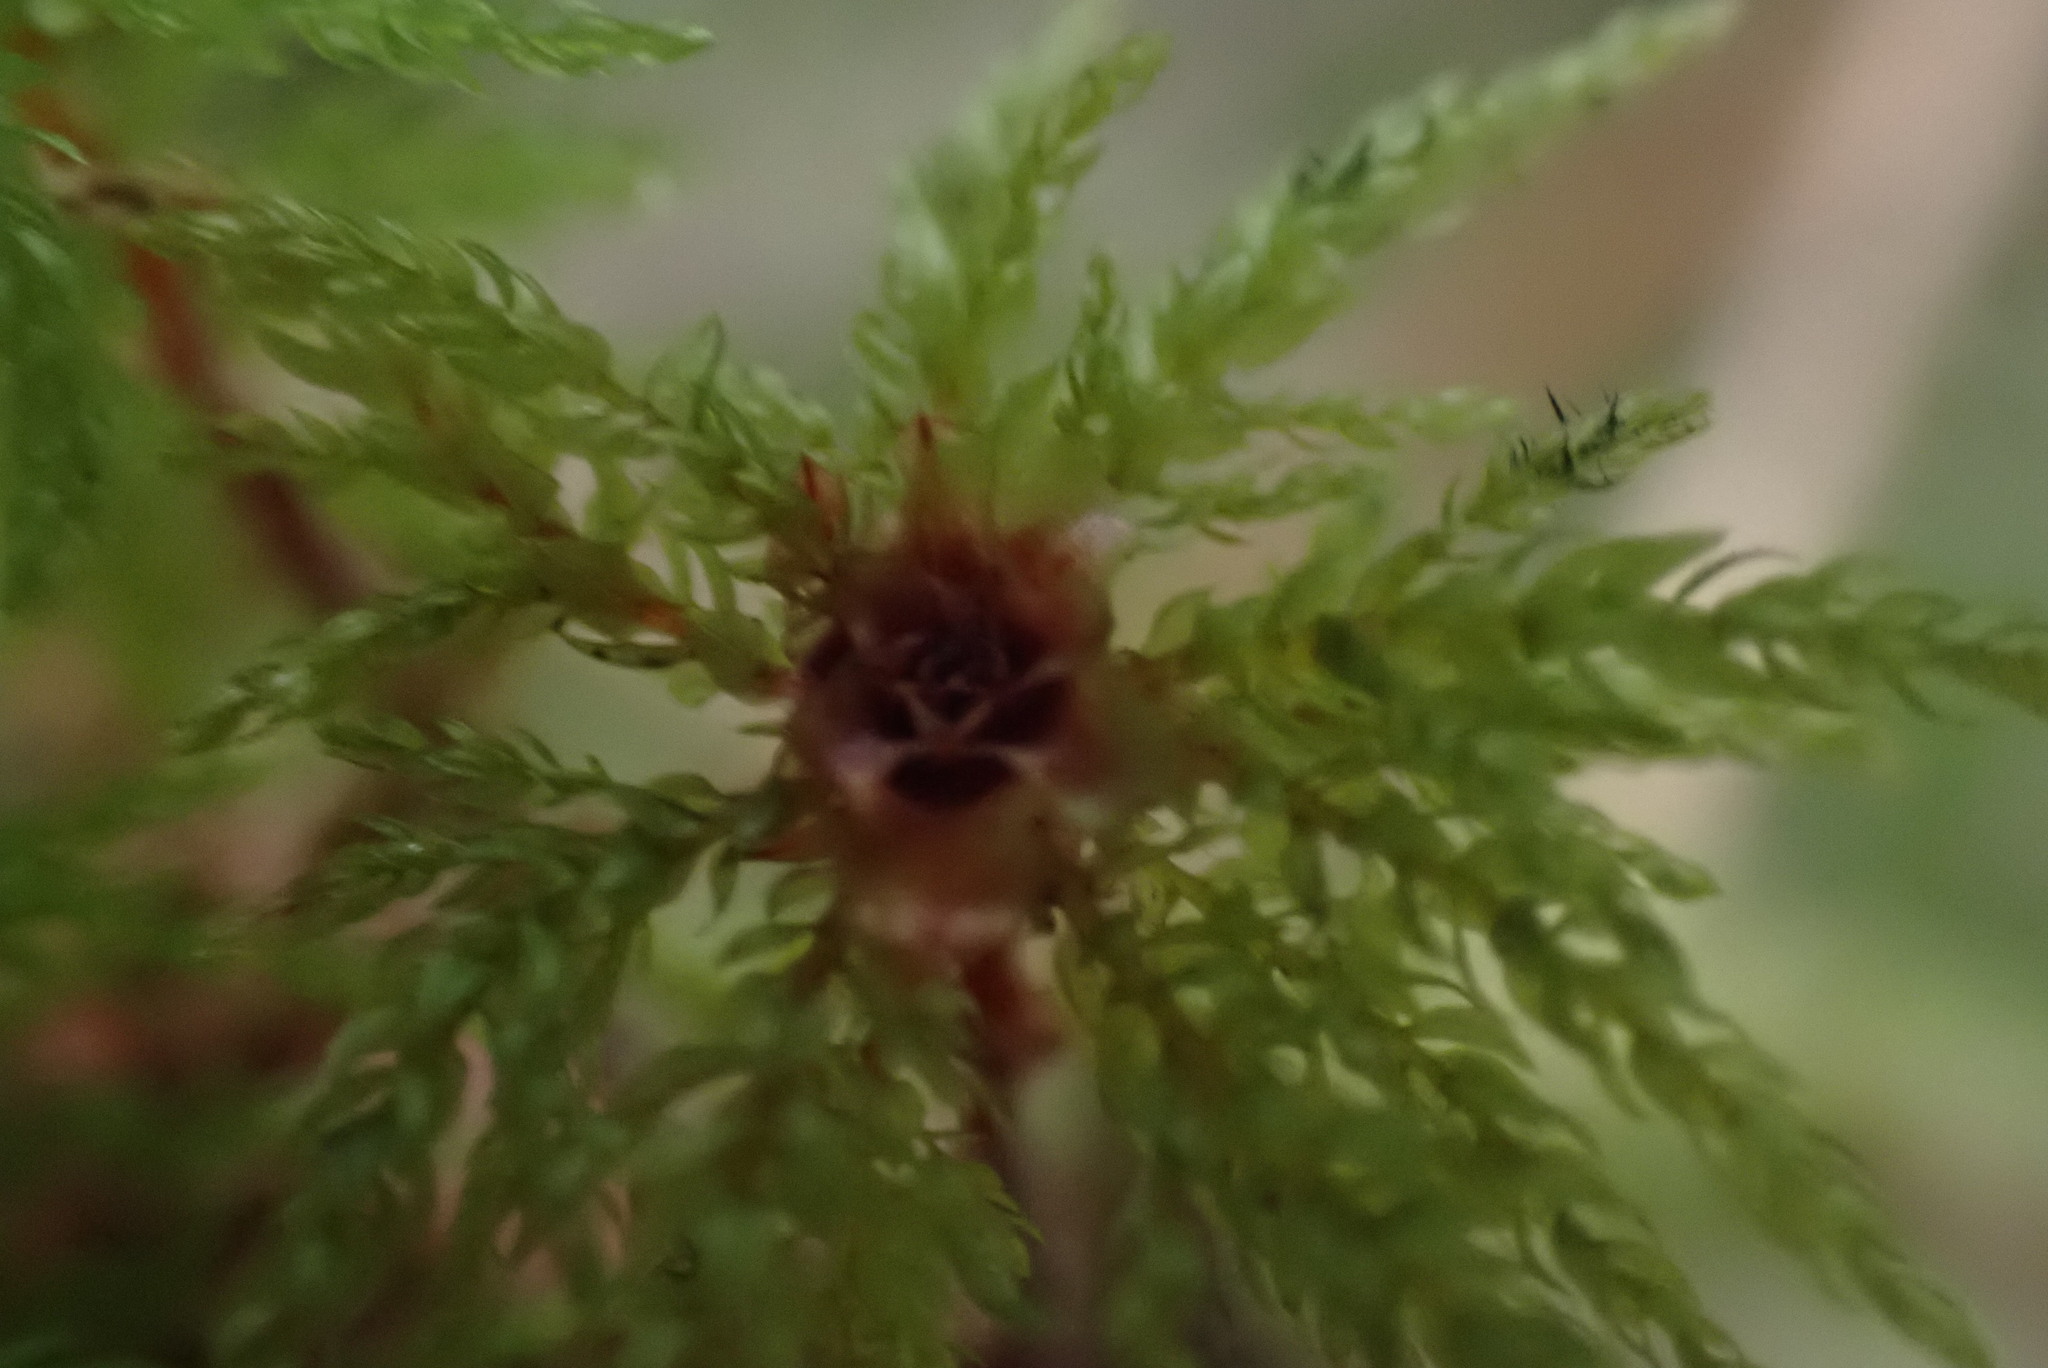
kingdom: Plantae
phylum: Bryophyta
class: Bryopsida
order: Bryales
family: Mniaceae
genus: Leucolepis
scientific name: Leucolepis acanthoneura
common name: Leucolepis umbrella moss
